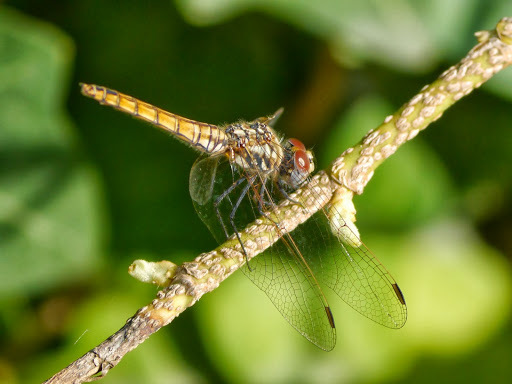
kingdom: Animalia
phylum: Arthropoda
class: Insecta
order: Odonata
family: Libellulidae
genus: Trithemis
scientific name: Trithemis annulata
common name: Violet dropwing
